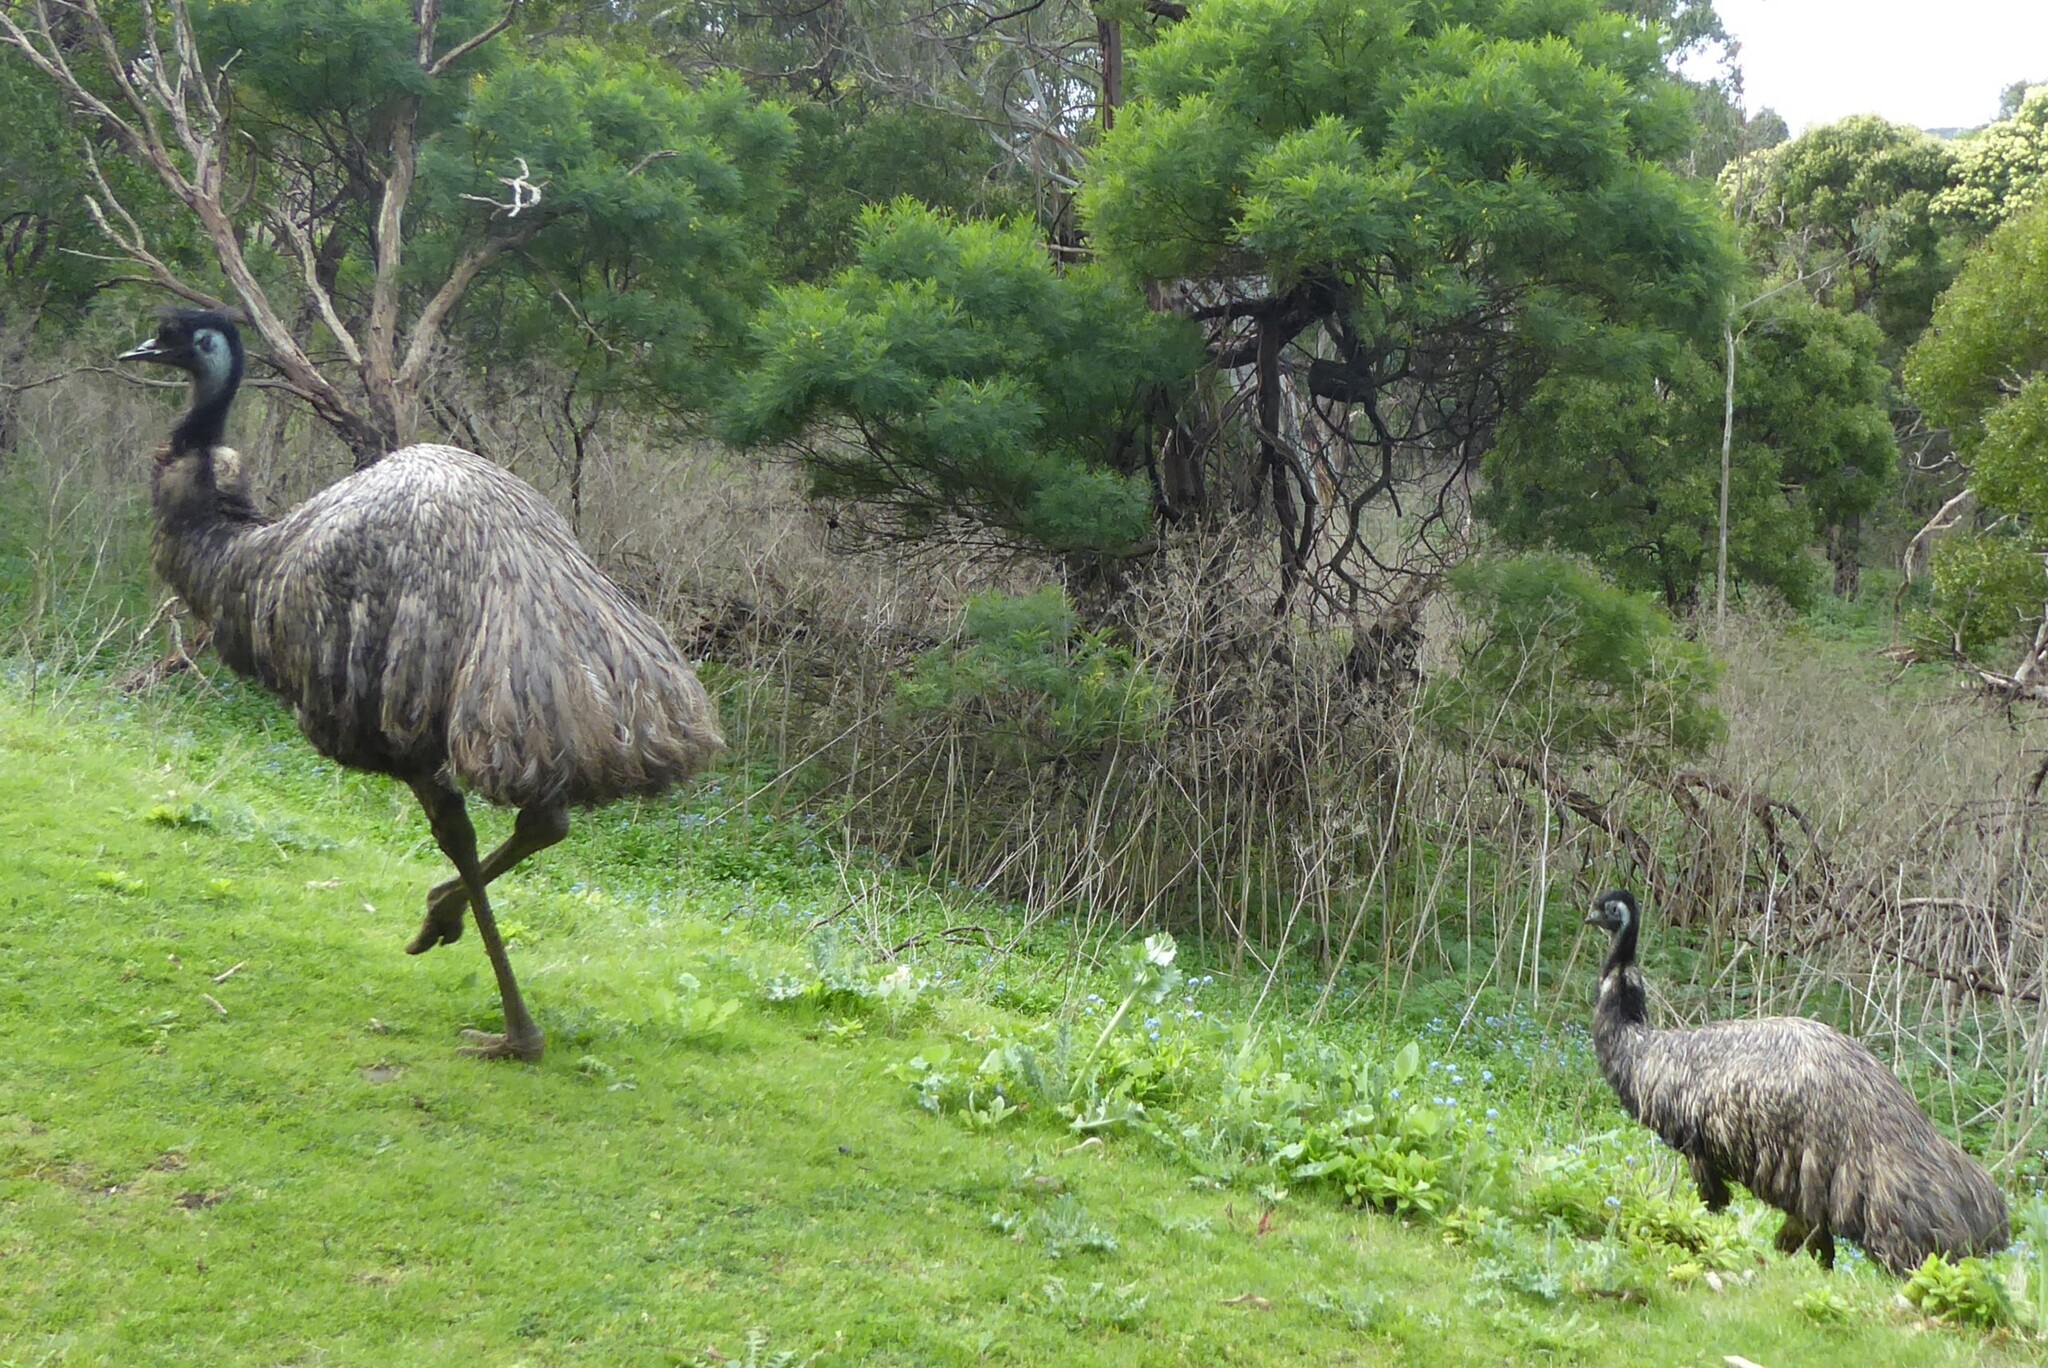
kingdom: Animalia
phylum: Chordata
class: Aves
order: Casuariiformes
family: Dromaiidae
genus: Dromaius
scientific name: Dromaius novaehollandiae
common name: Emu
